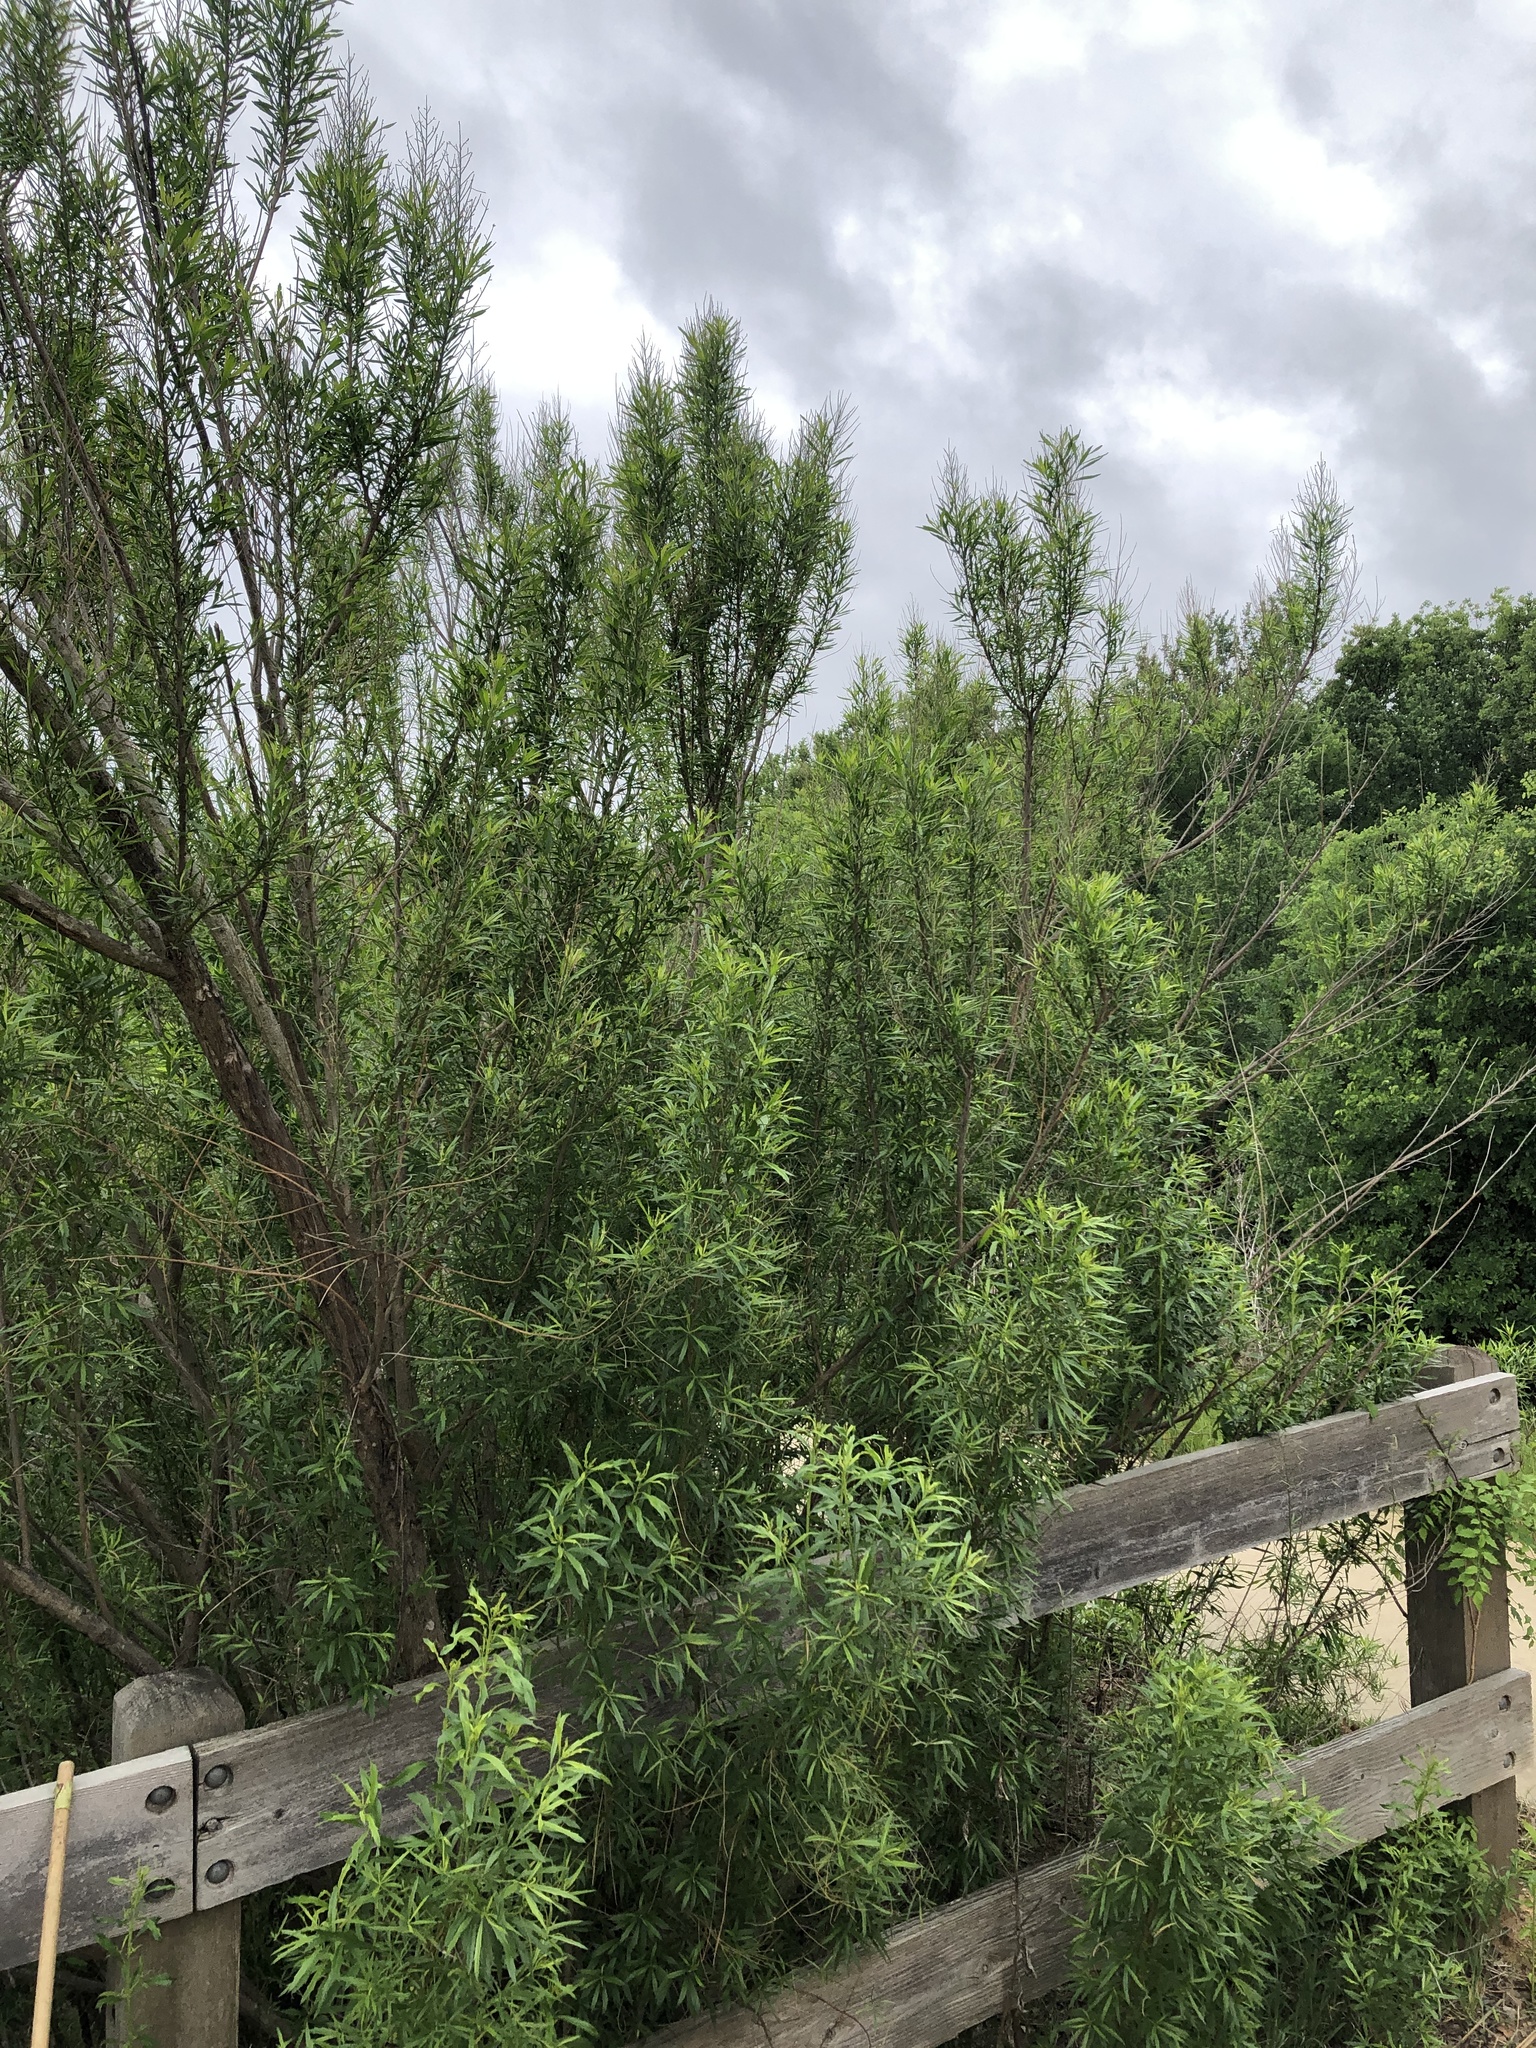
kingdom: Plantae
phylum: Tracheophyta
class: Magnoliopsida
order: Asterales
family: Asteraceae
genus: Baccharis
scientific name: Baccharis neglecta
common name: Roosevelt-weed
